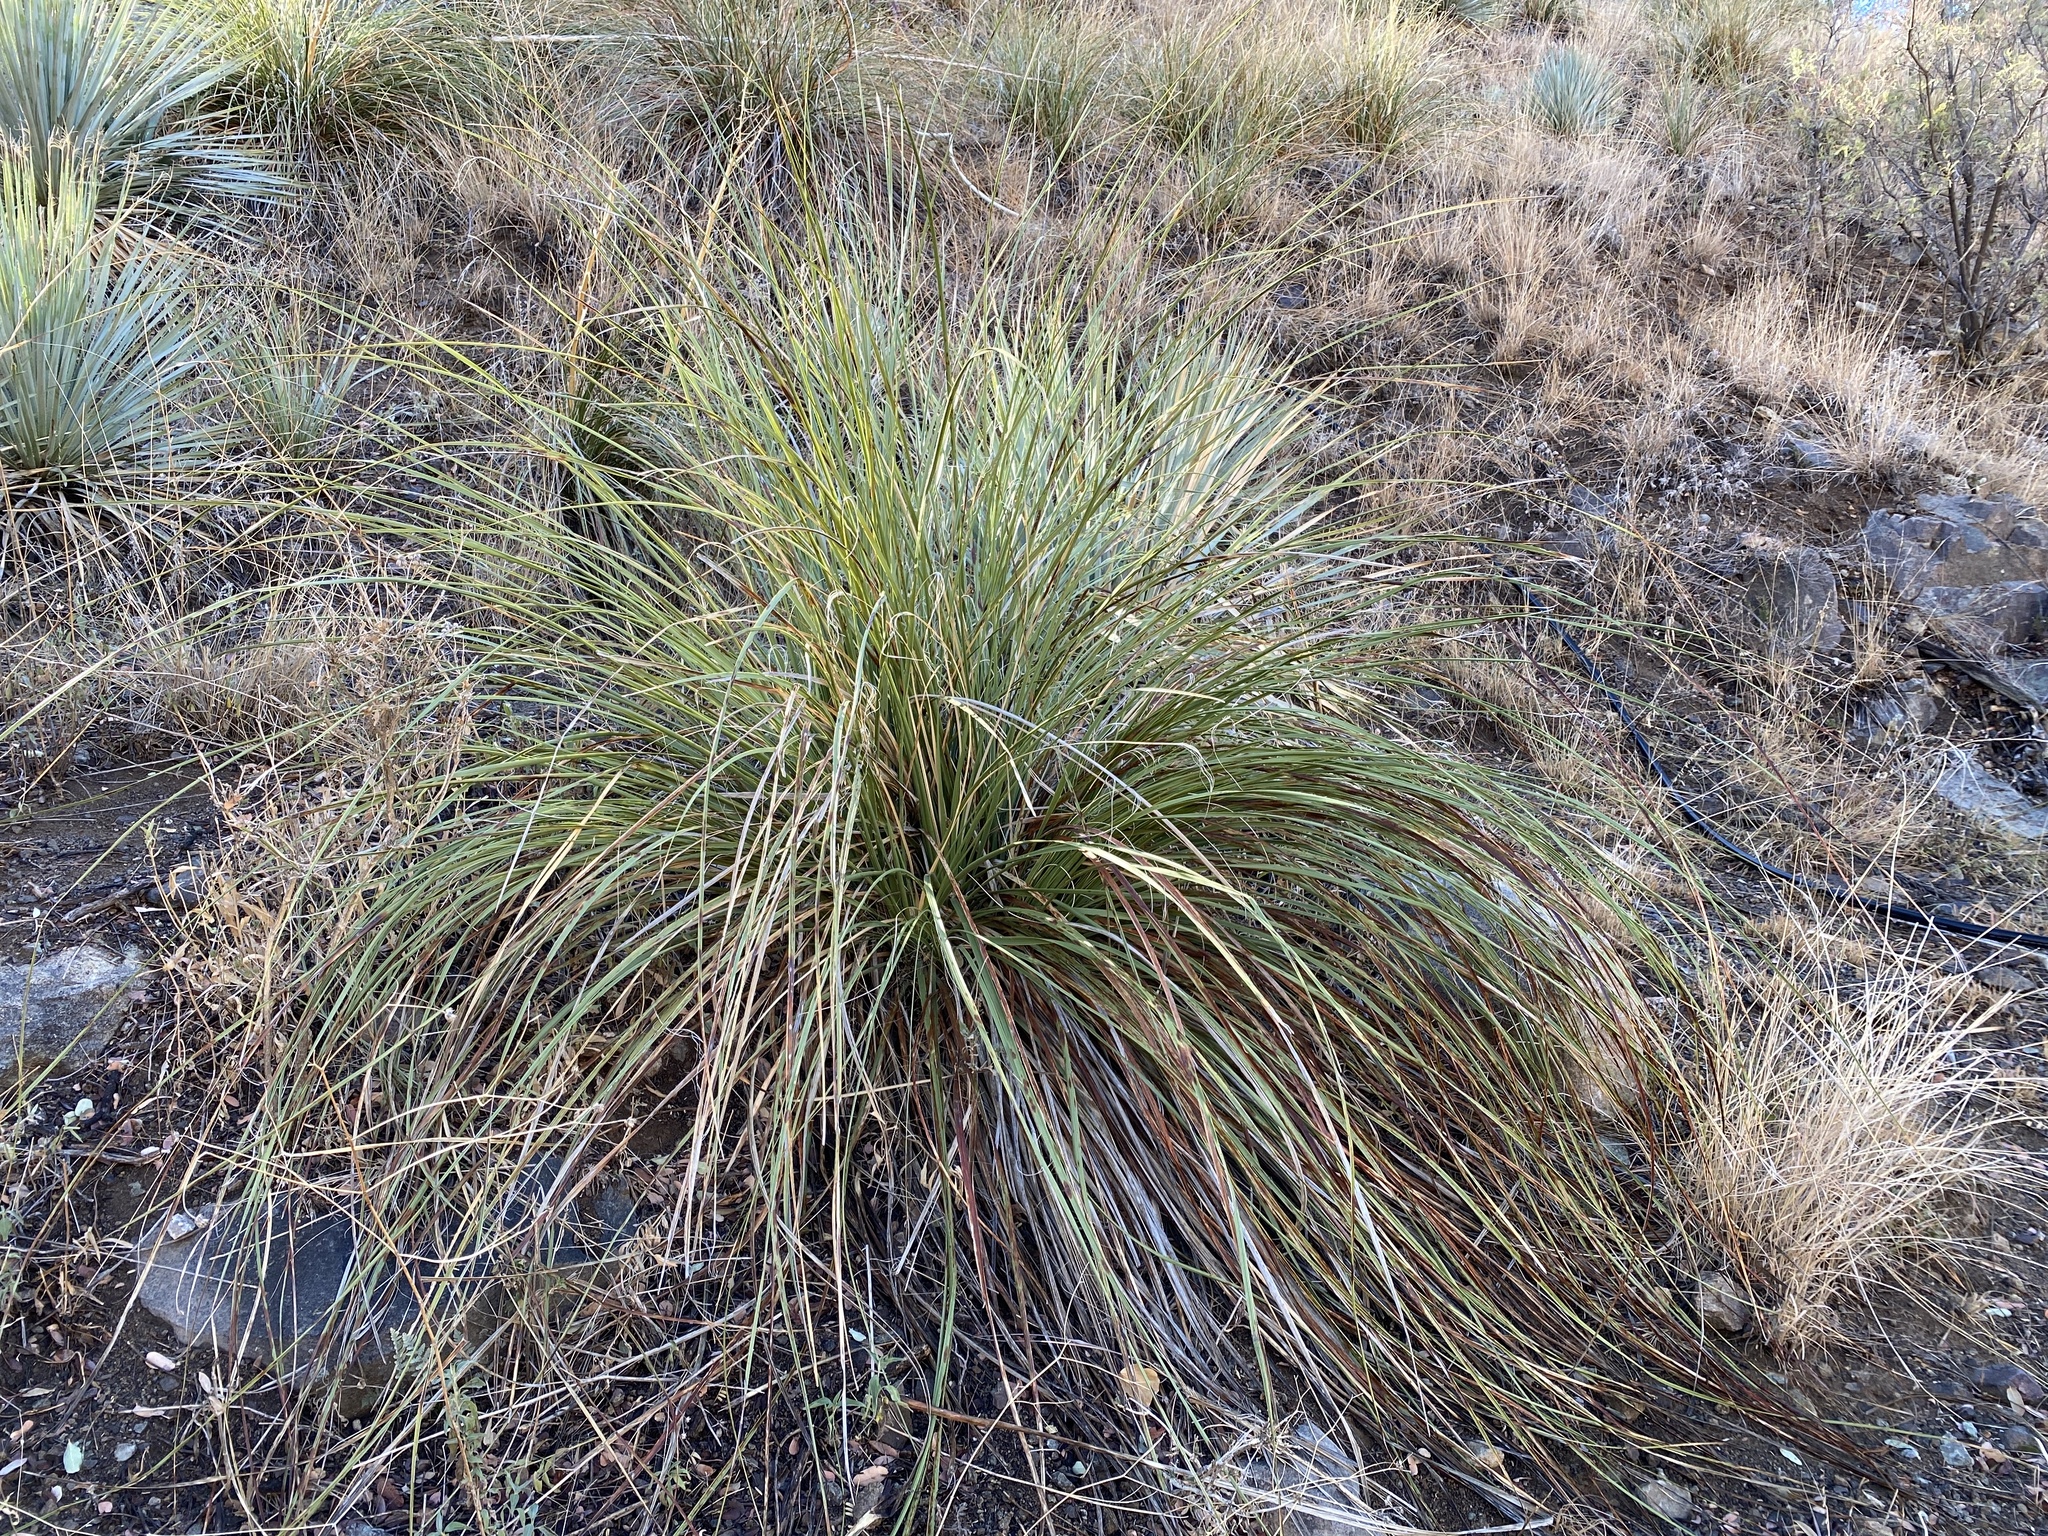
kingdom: Plantae
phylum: Tracheophyta
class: Liliopsida
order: Asparagales
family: Asparagaceae
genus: Nolina
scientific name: Nolina microcarpa
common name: Bear-grass
